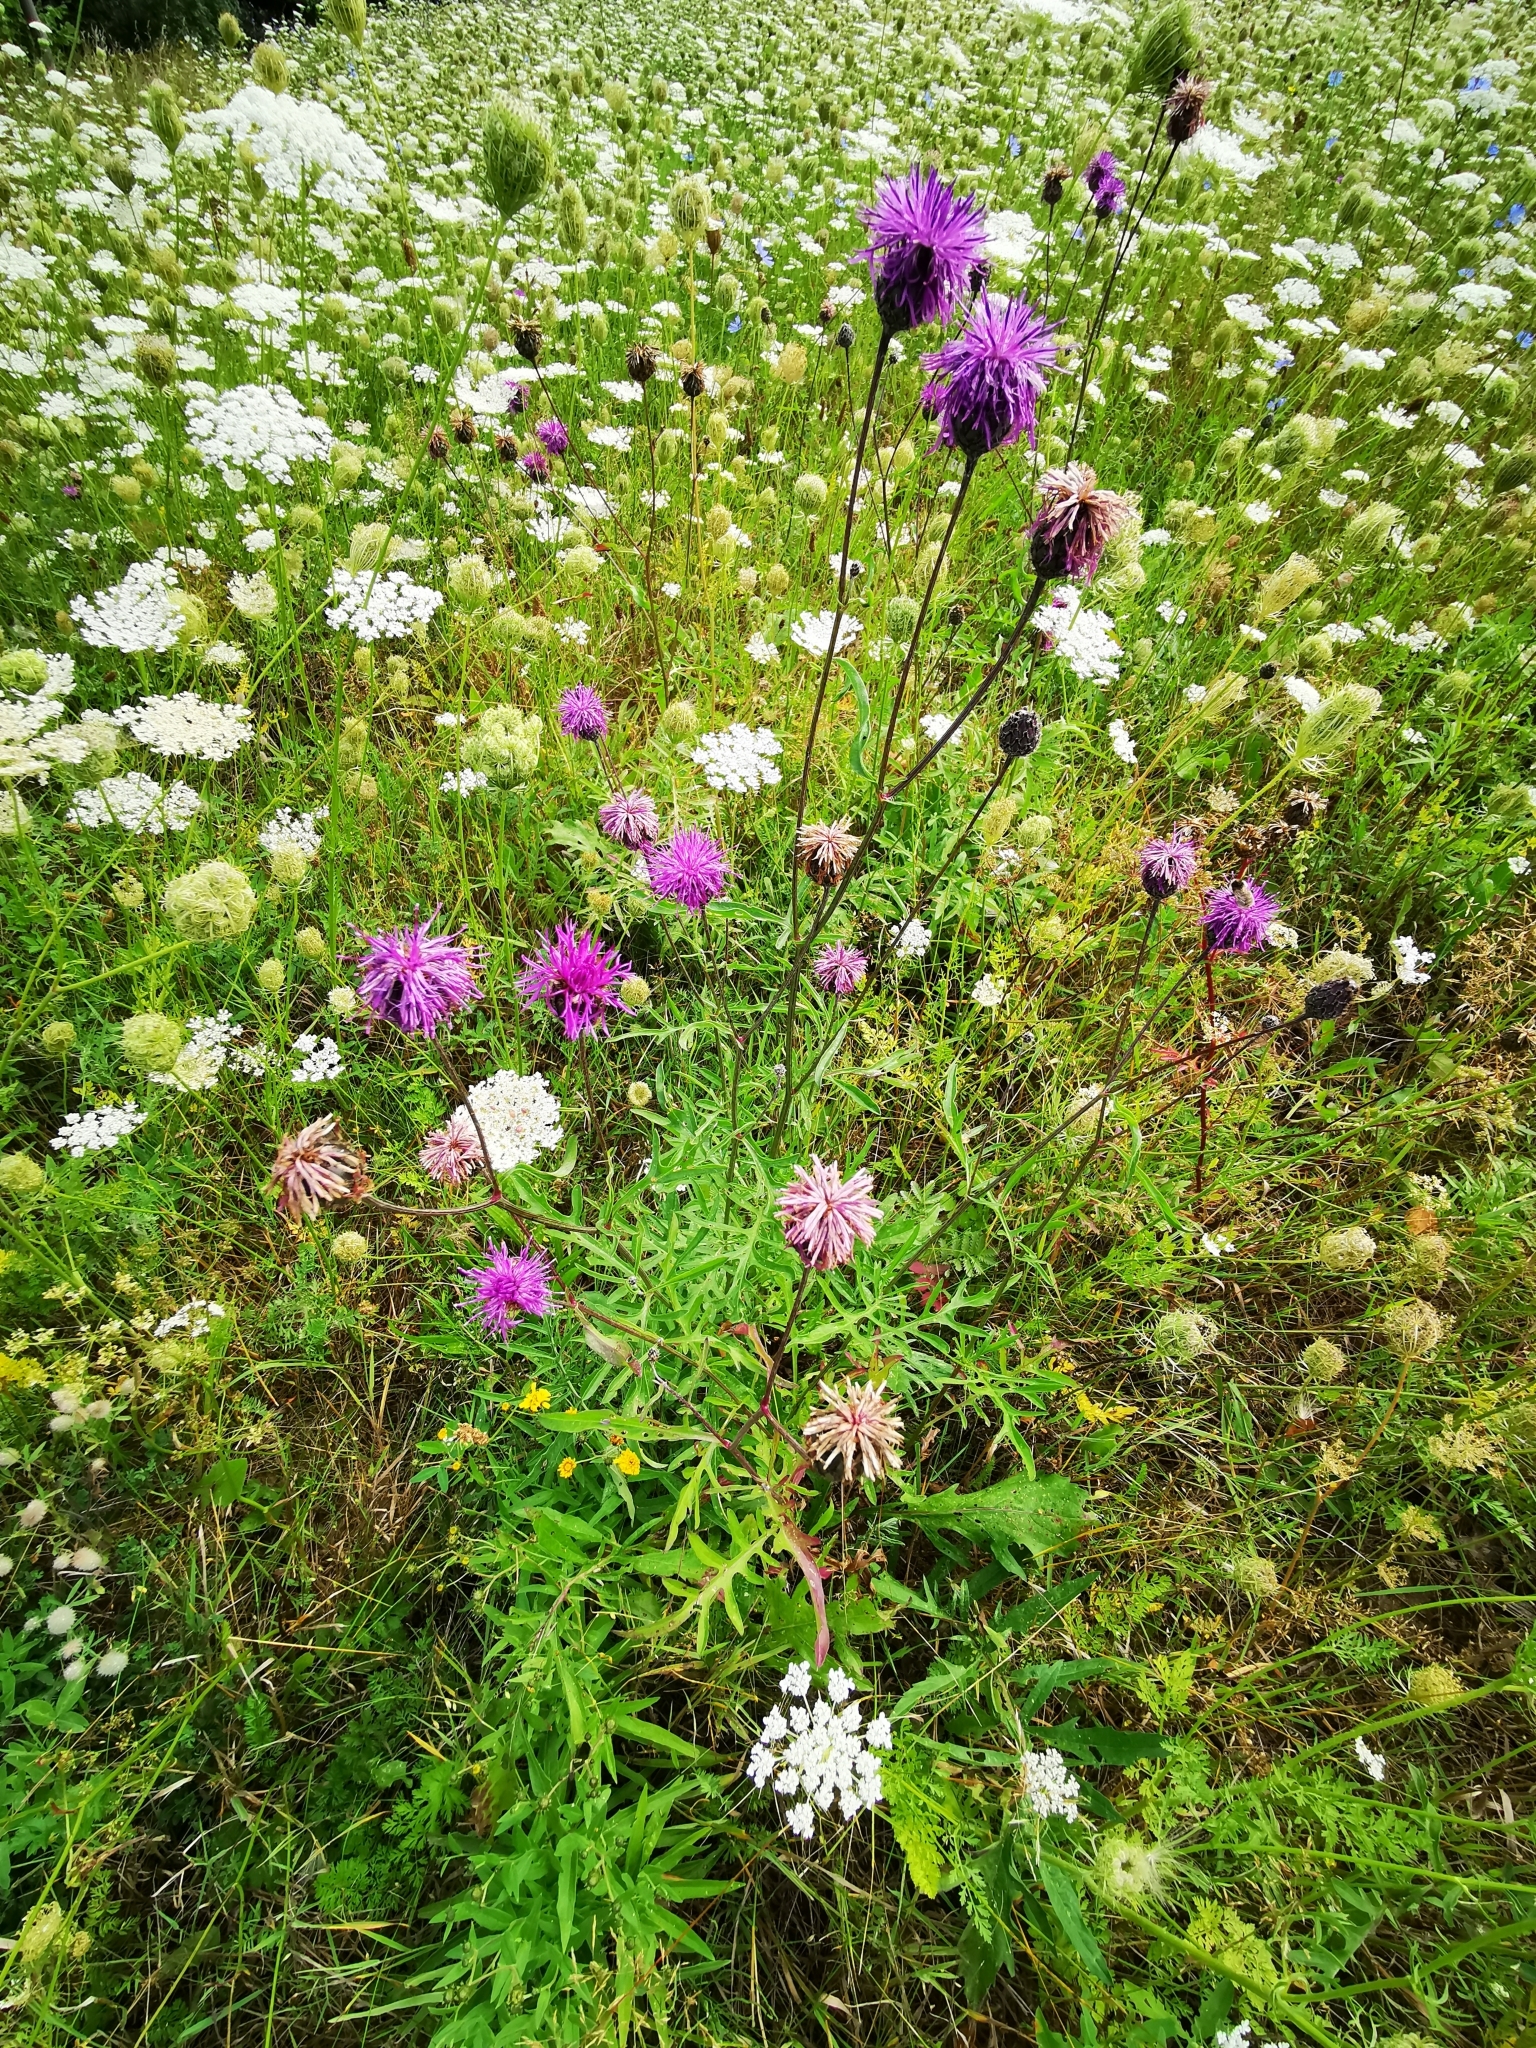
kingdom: Plantae
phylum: Tracheophyta
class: Magnoliopsida
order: Asterales
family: Asteraceae
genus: Centaurea
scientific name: Centaurea scabiosa
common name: Greater knapweed
